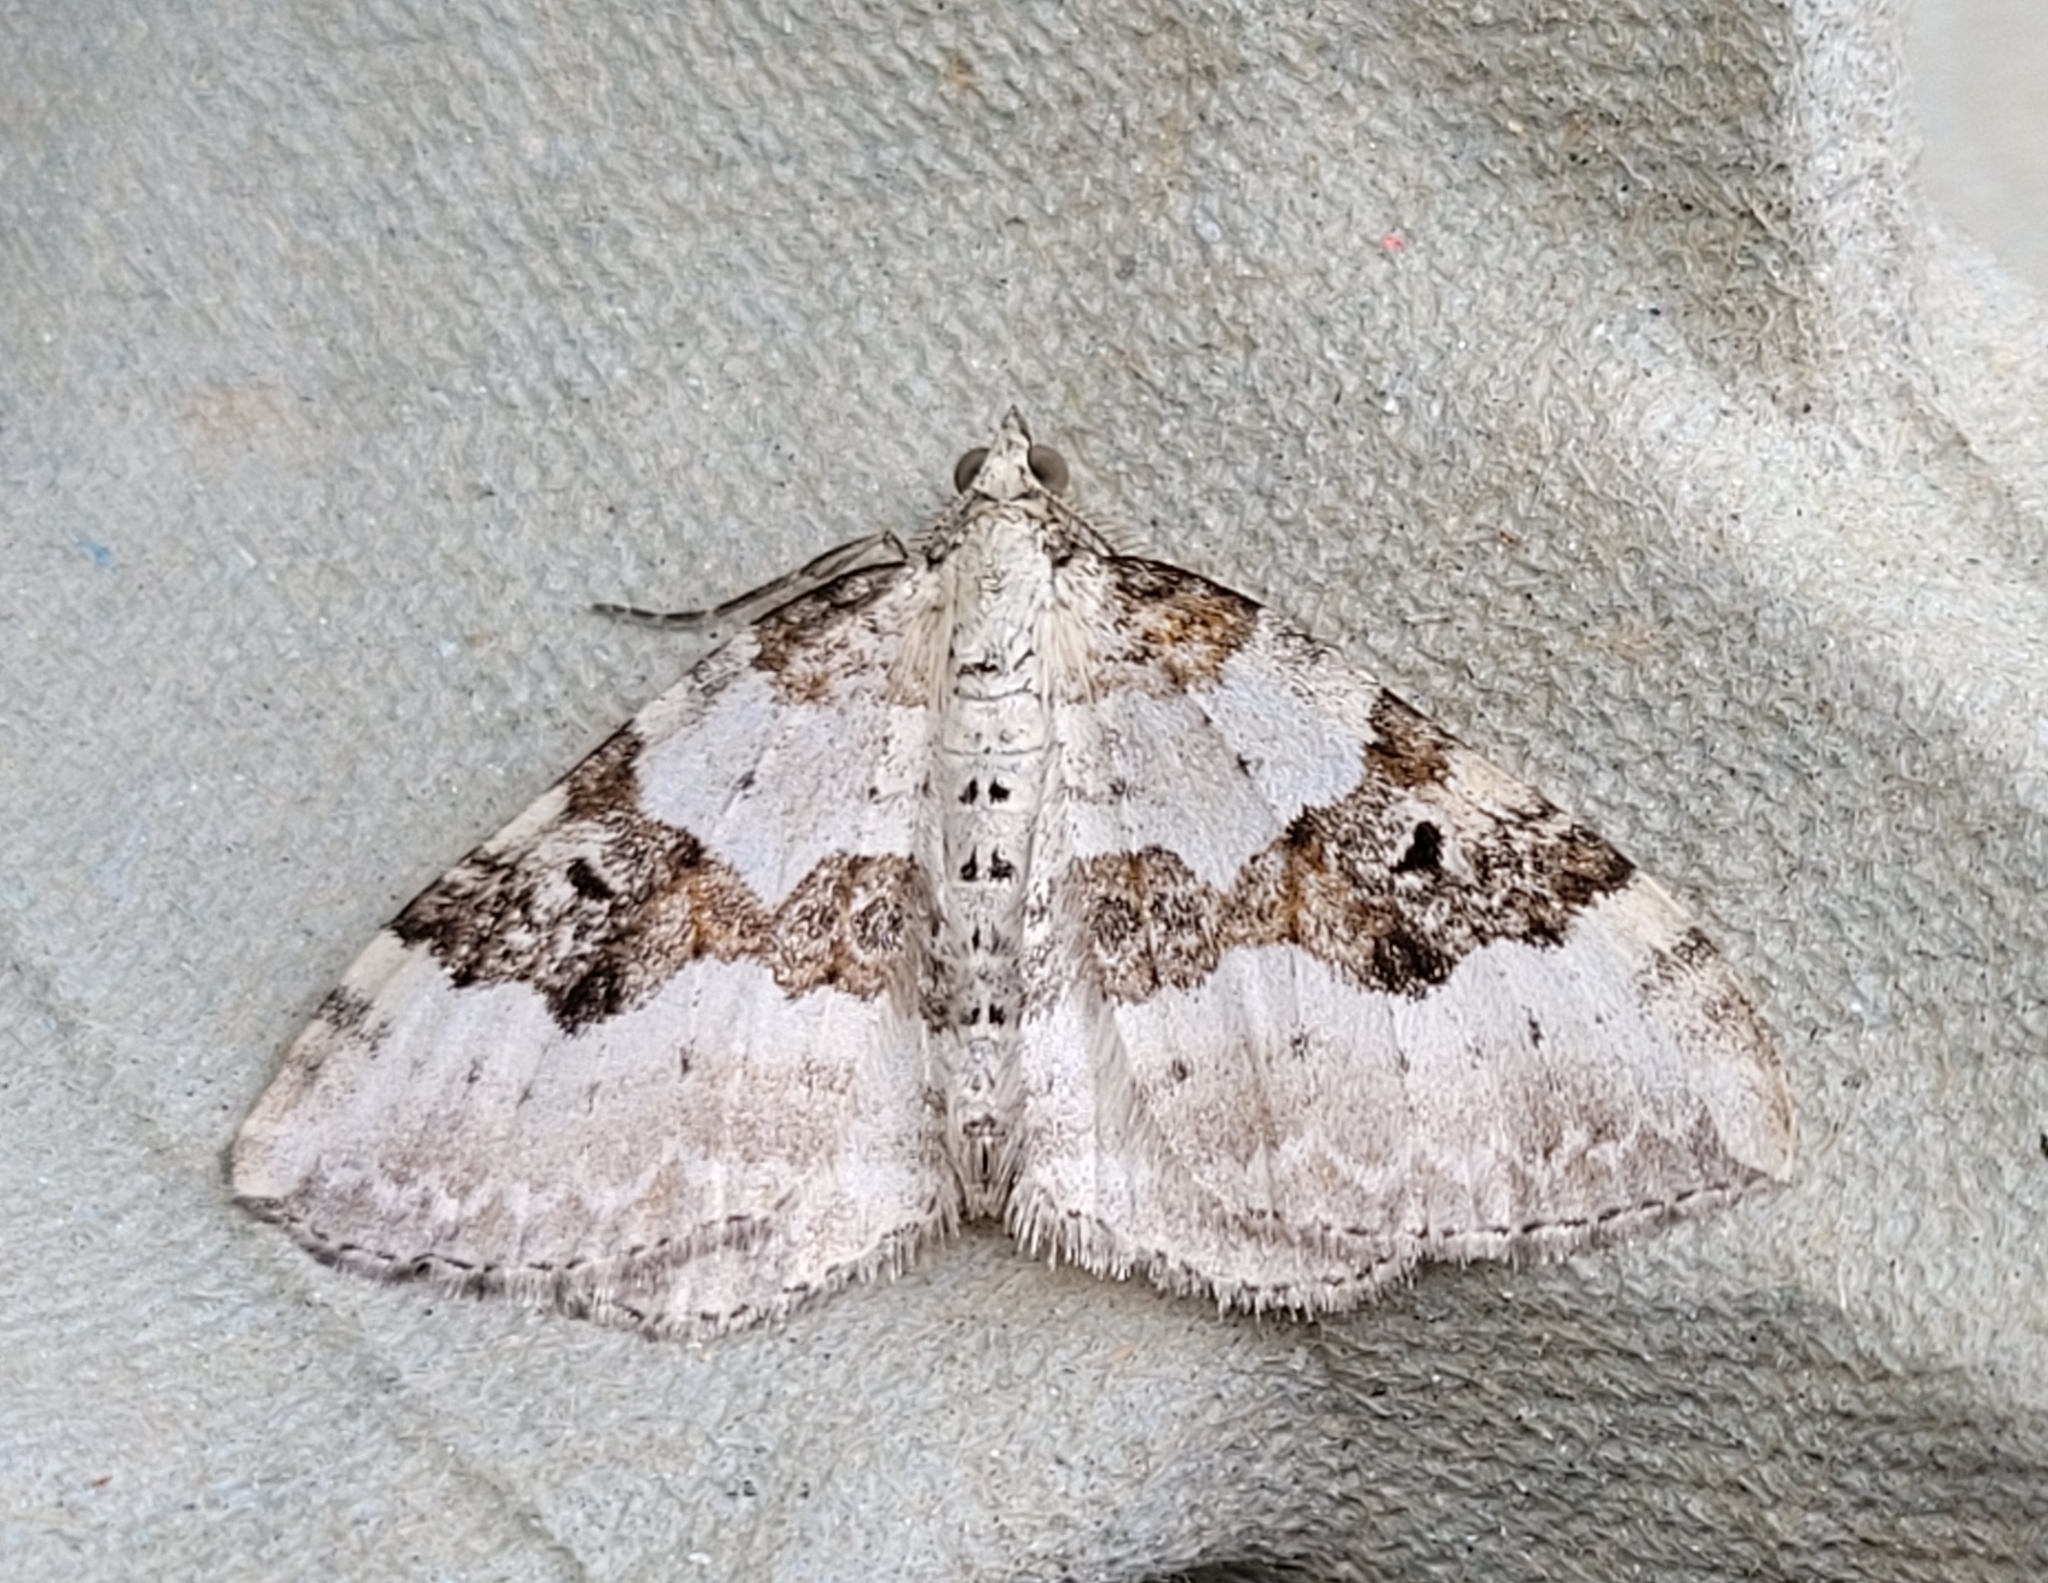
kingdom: Animalia
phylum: Arthropoda
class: Insecta
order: Lepidoptera
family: Geometridae
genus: Xanthorhoe
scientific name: Xanthorhoe montanata
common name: Silver-ground carpet
